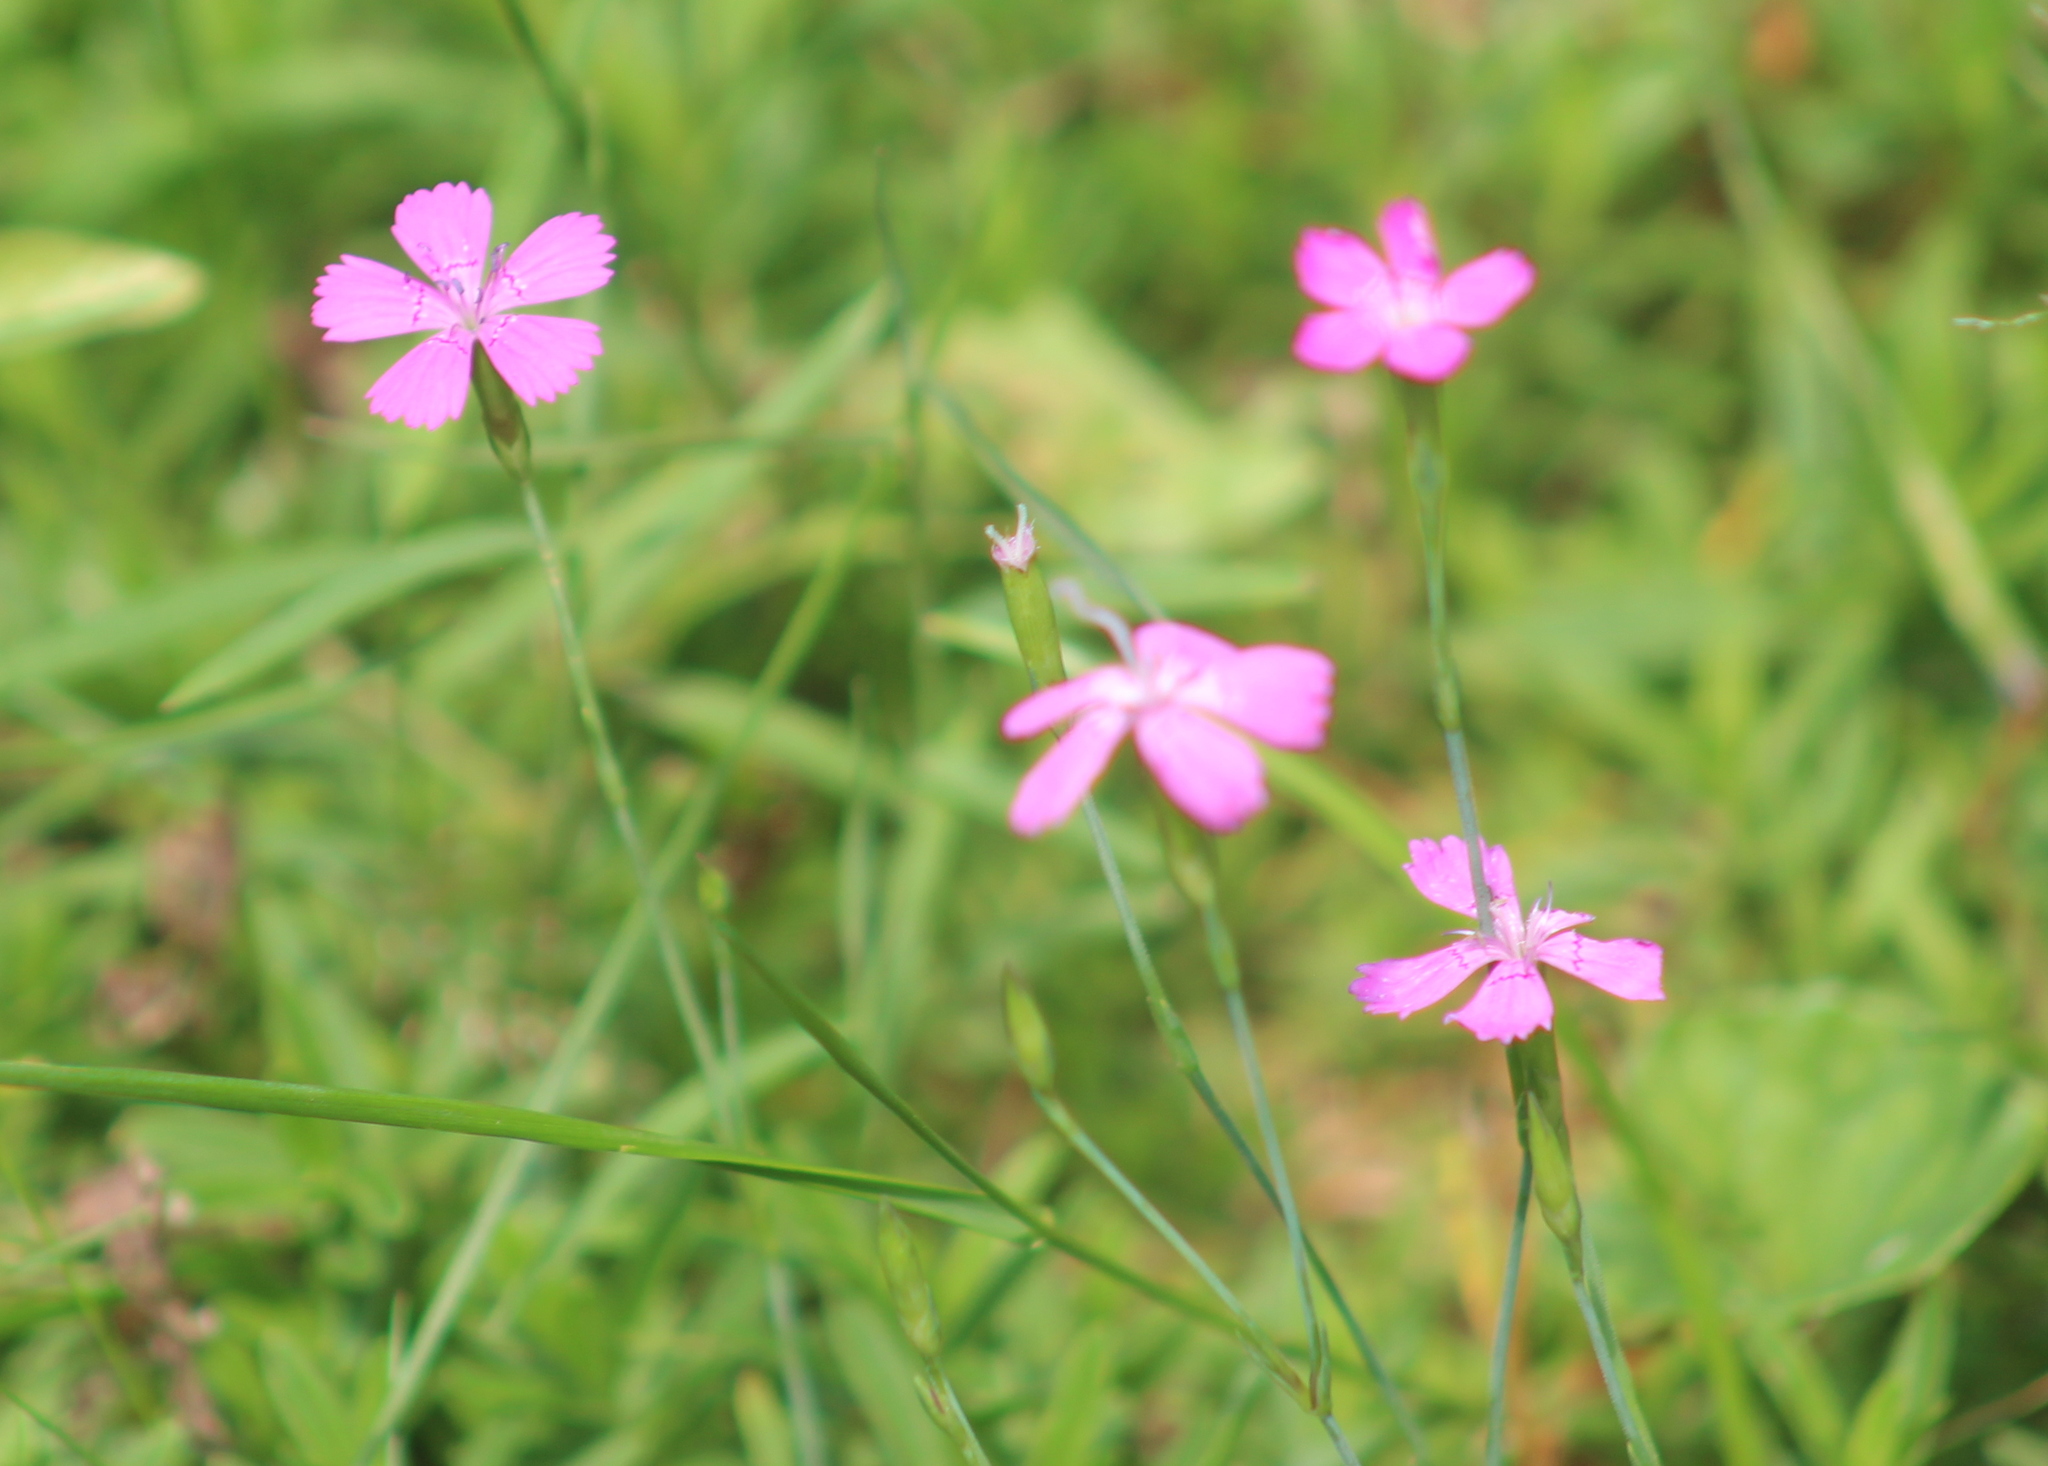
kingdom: Plantae
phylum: Tracheophyta
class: Magnoliopsida
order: Caryophyllales
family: Caryophyllaceae
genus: Dianthus
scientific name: Dianthus deltoides
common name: Maiden pink
